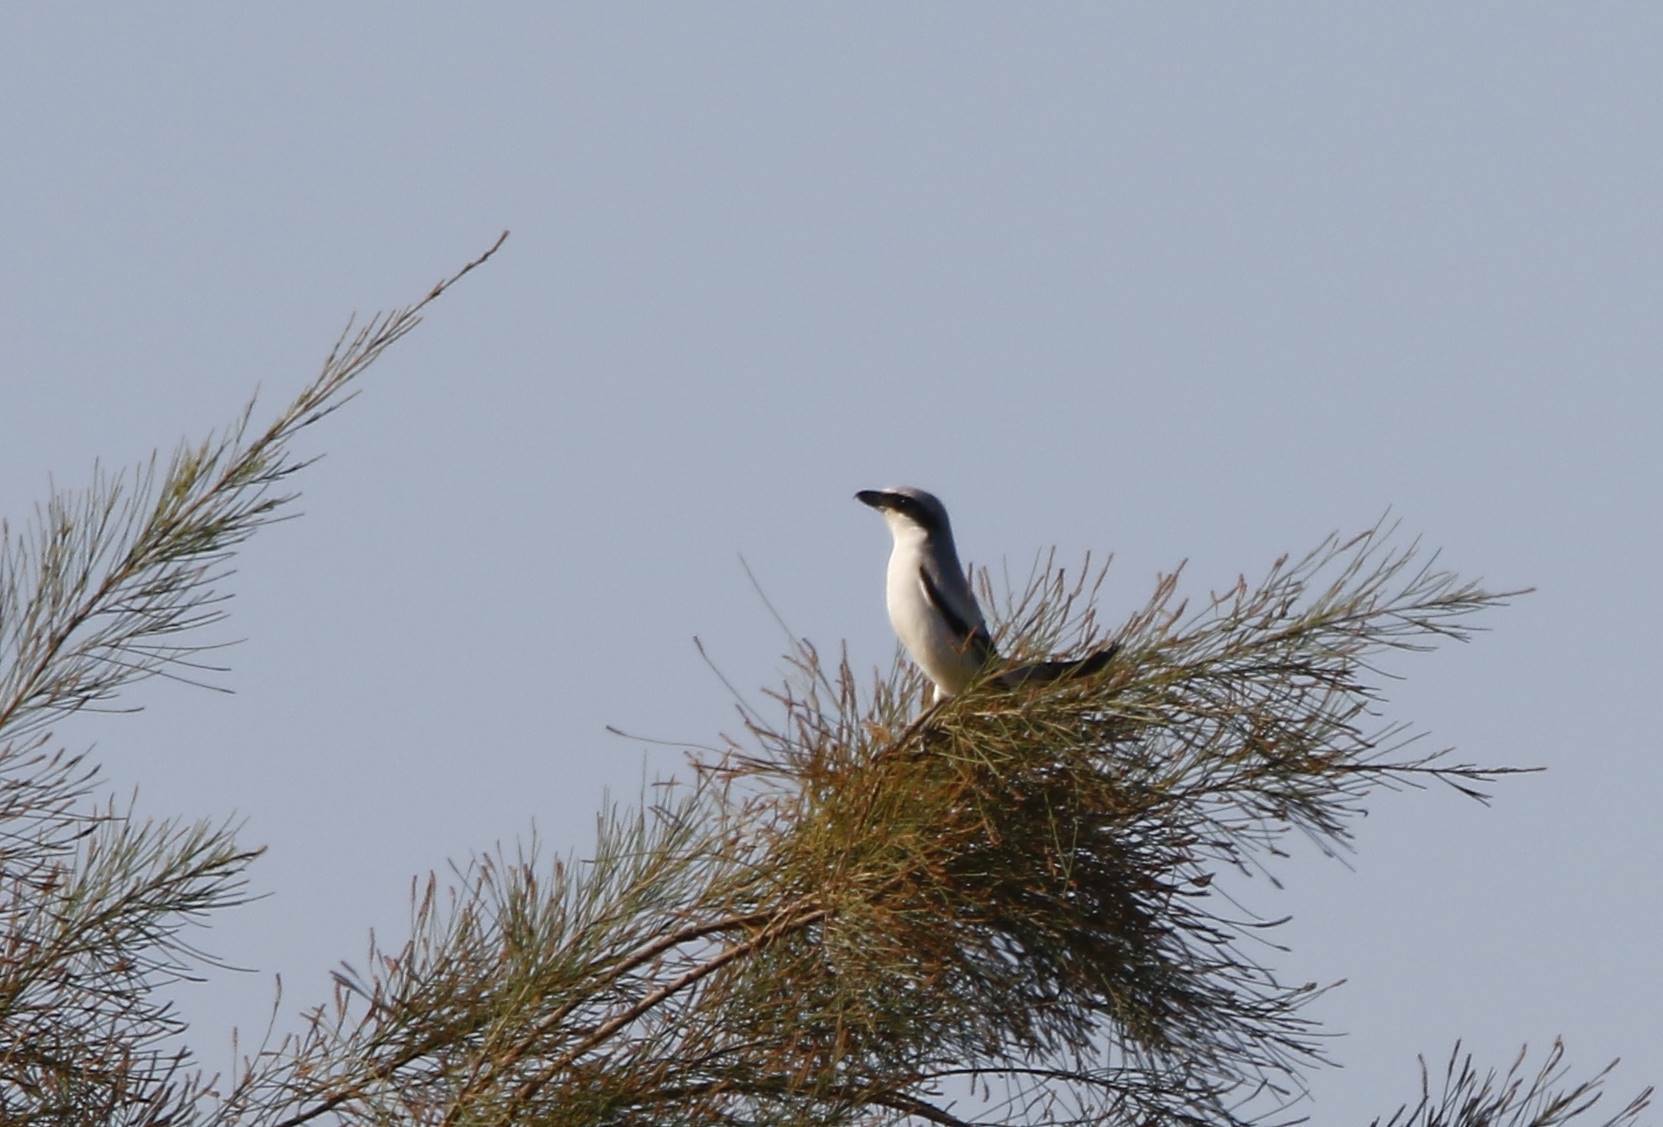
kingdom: Animalia
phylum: Chordata
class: Aves
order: Passeriformes
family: Laniidae
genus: Lanius
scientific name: Lanius excubitor
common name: Great grey shrike
